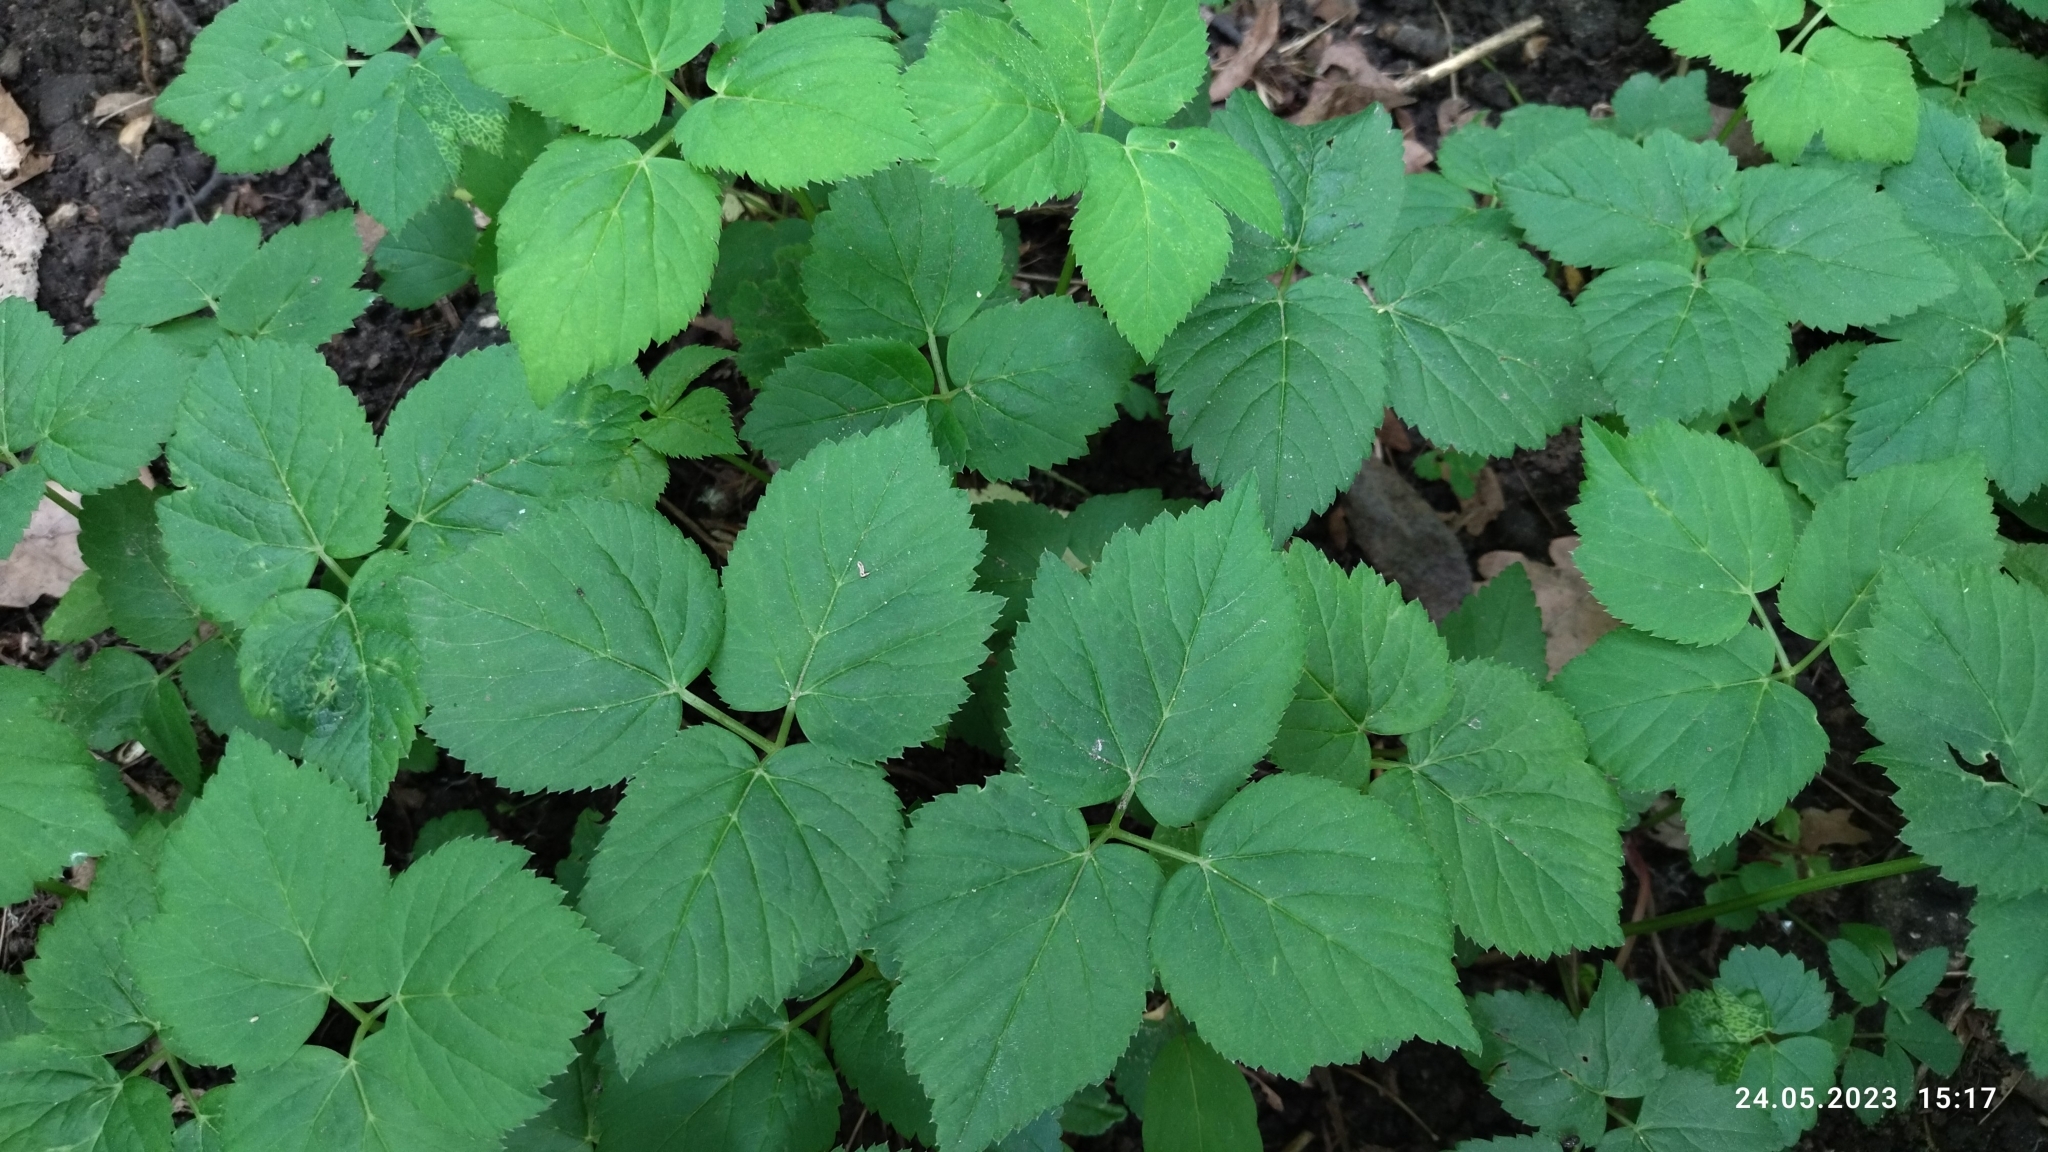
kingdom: Plantae
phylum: Tracheophyta
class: Magnoliopsida
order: Apiales
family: Apiaceae
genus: Aegopodium
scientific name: Aegopodium podagraria
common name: Ground-elder
